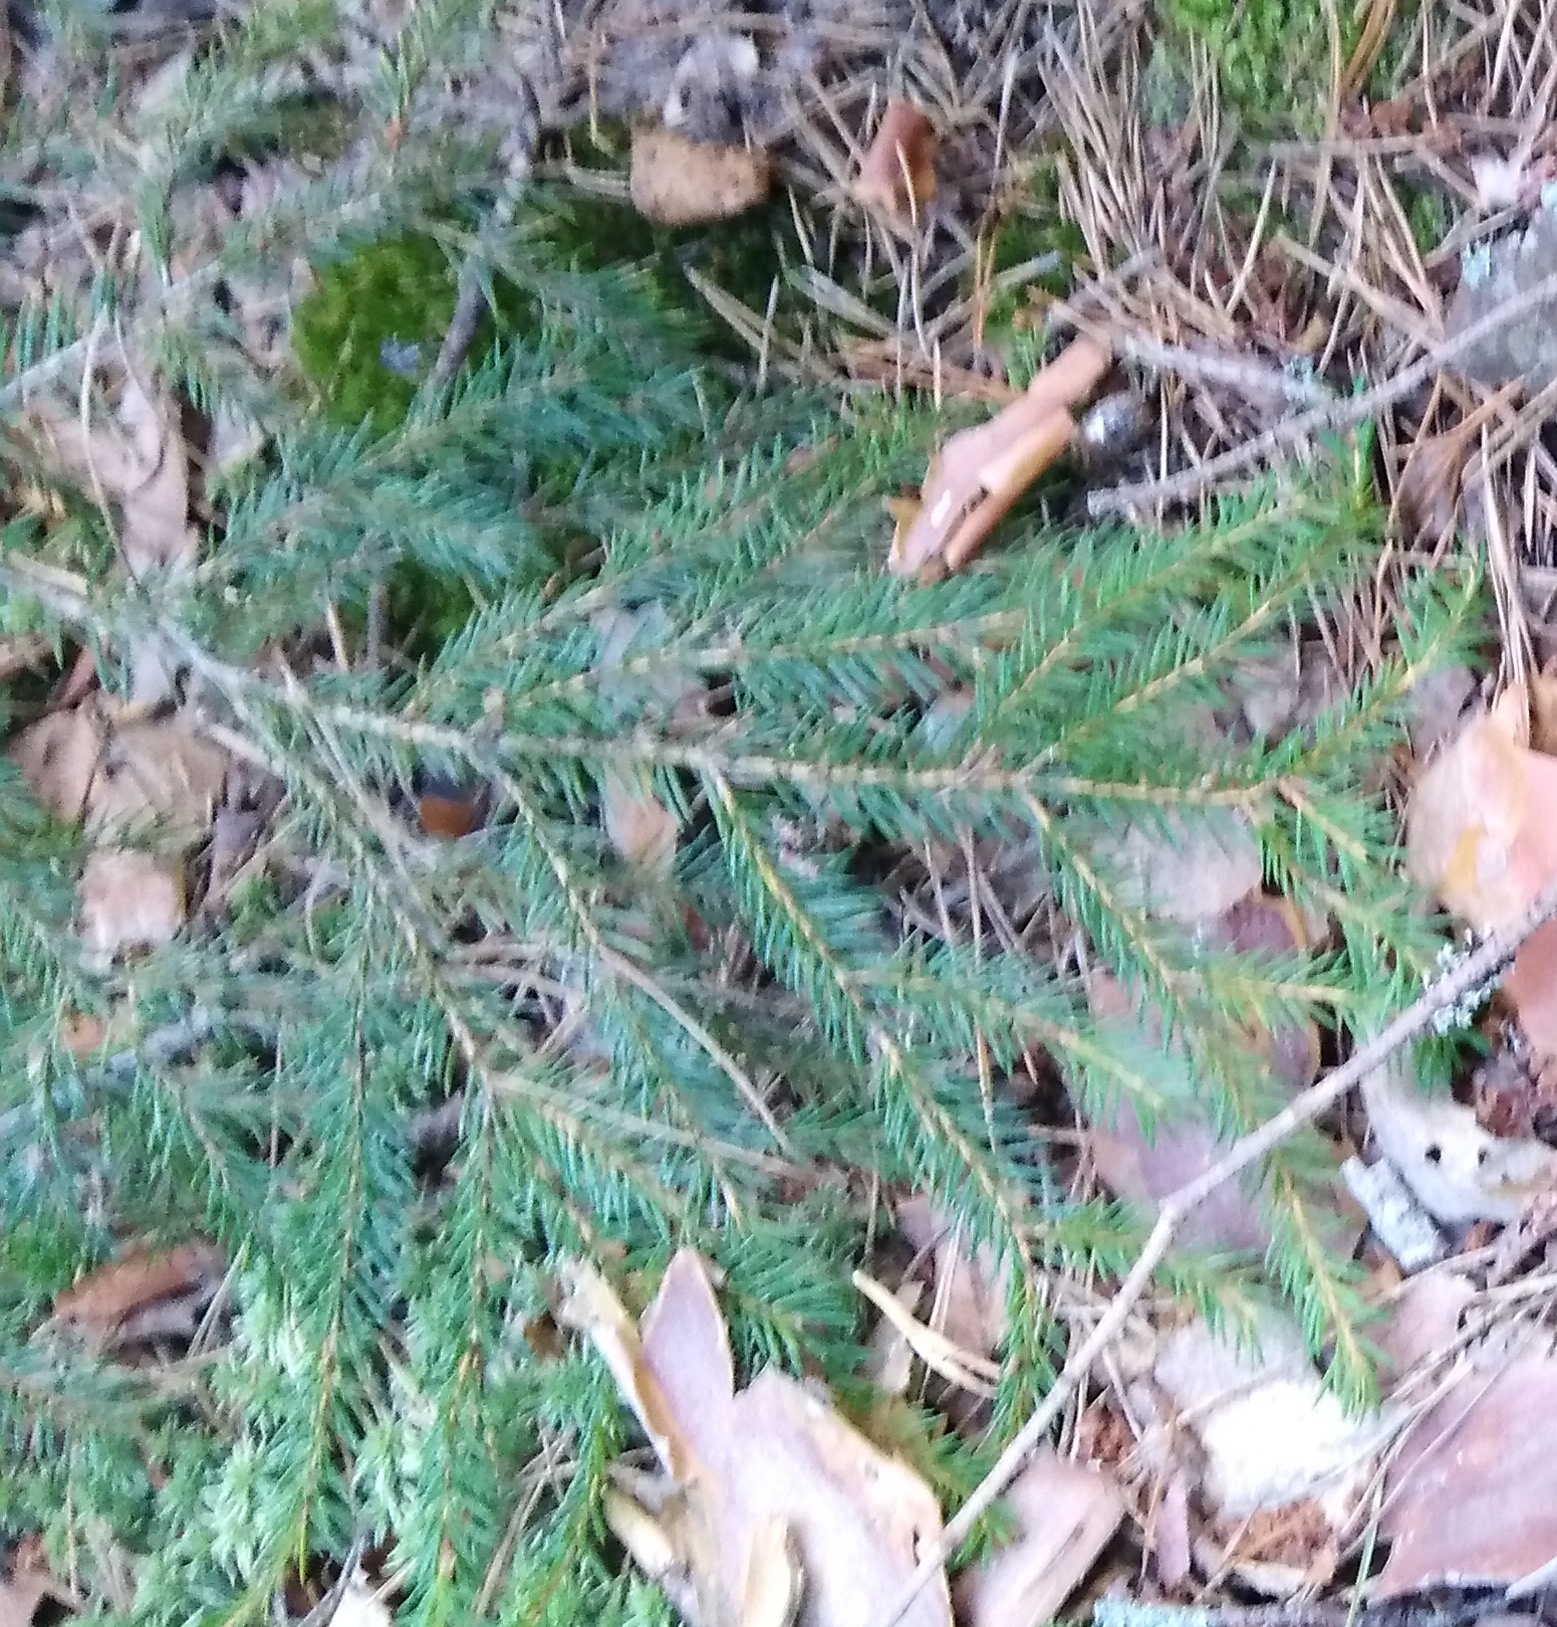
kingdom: Plantae
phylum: Tracheophyta
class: Pinopsida
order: Pinales
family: Pinaceae
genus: Picea
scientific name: Picea abies
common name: Norway spruce
